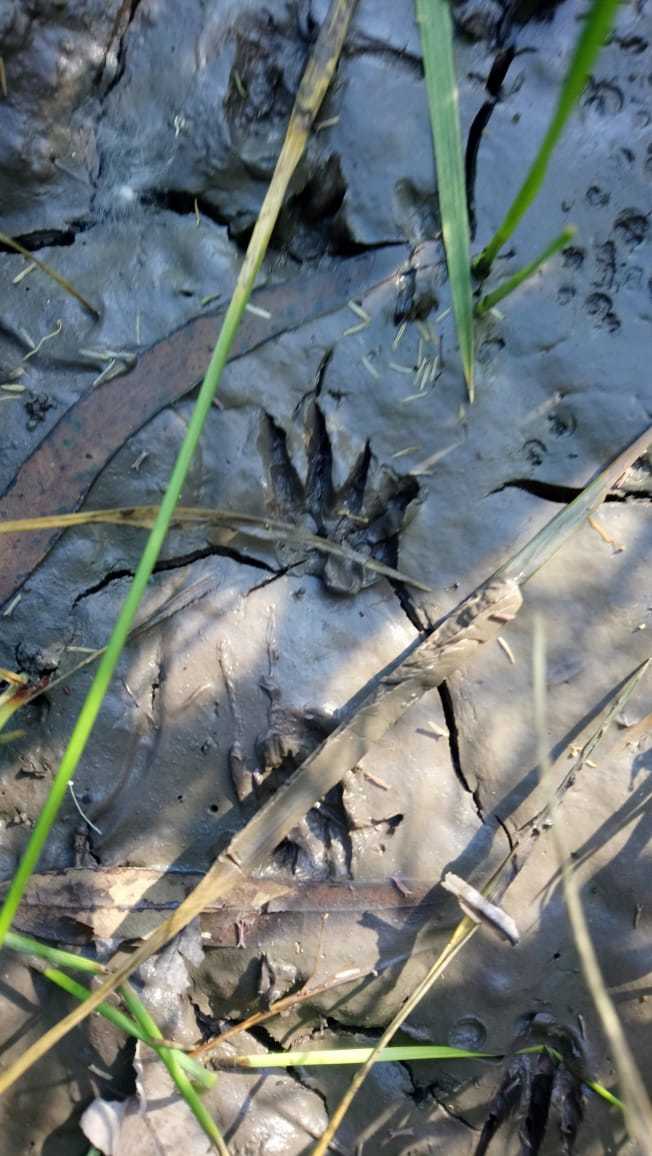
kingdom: Animalia
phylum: Chordata
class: Mammalia
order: Rodentia
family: Caviidae
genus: Cavia
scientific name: Cavia aperea
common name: Brazilian guinea pig
